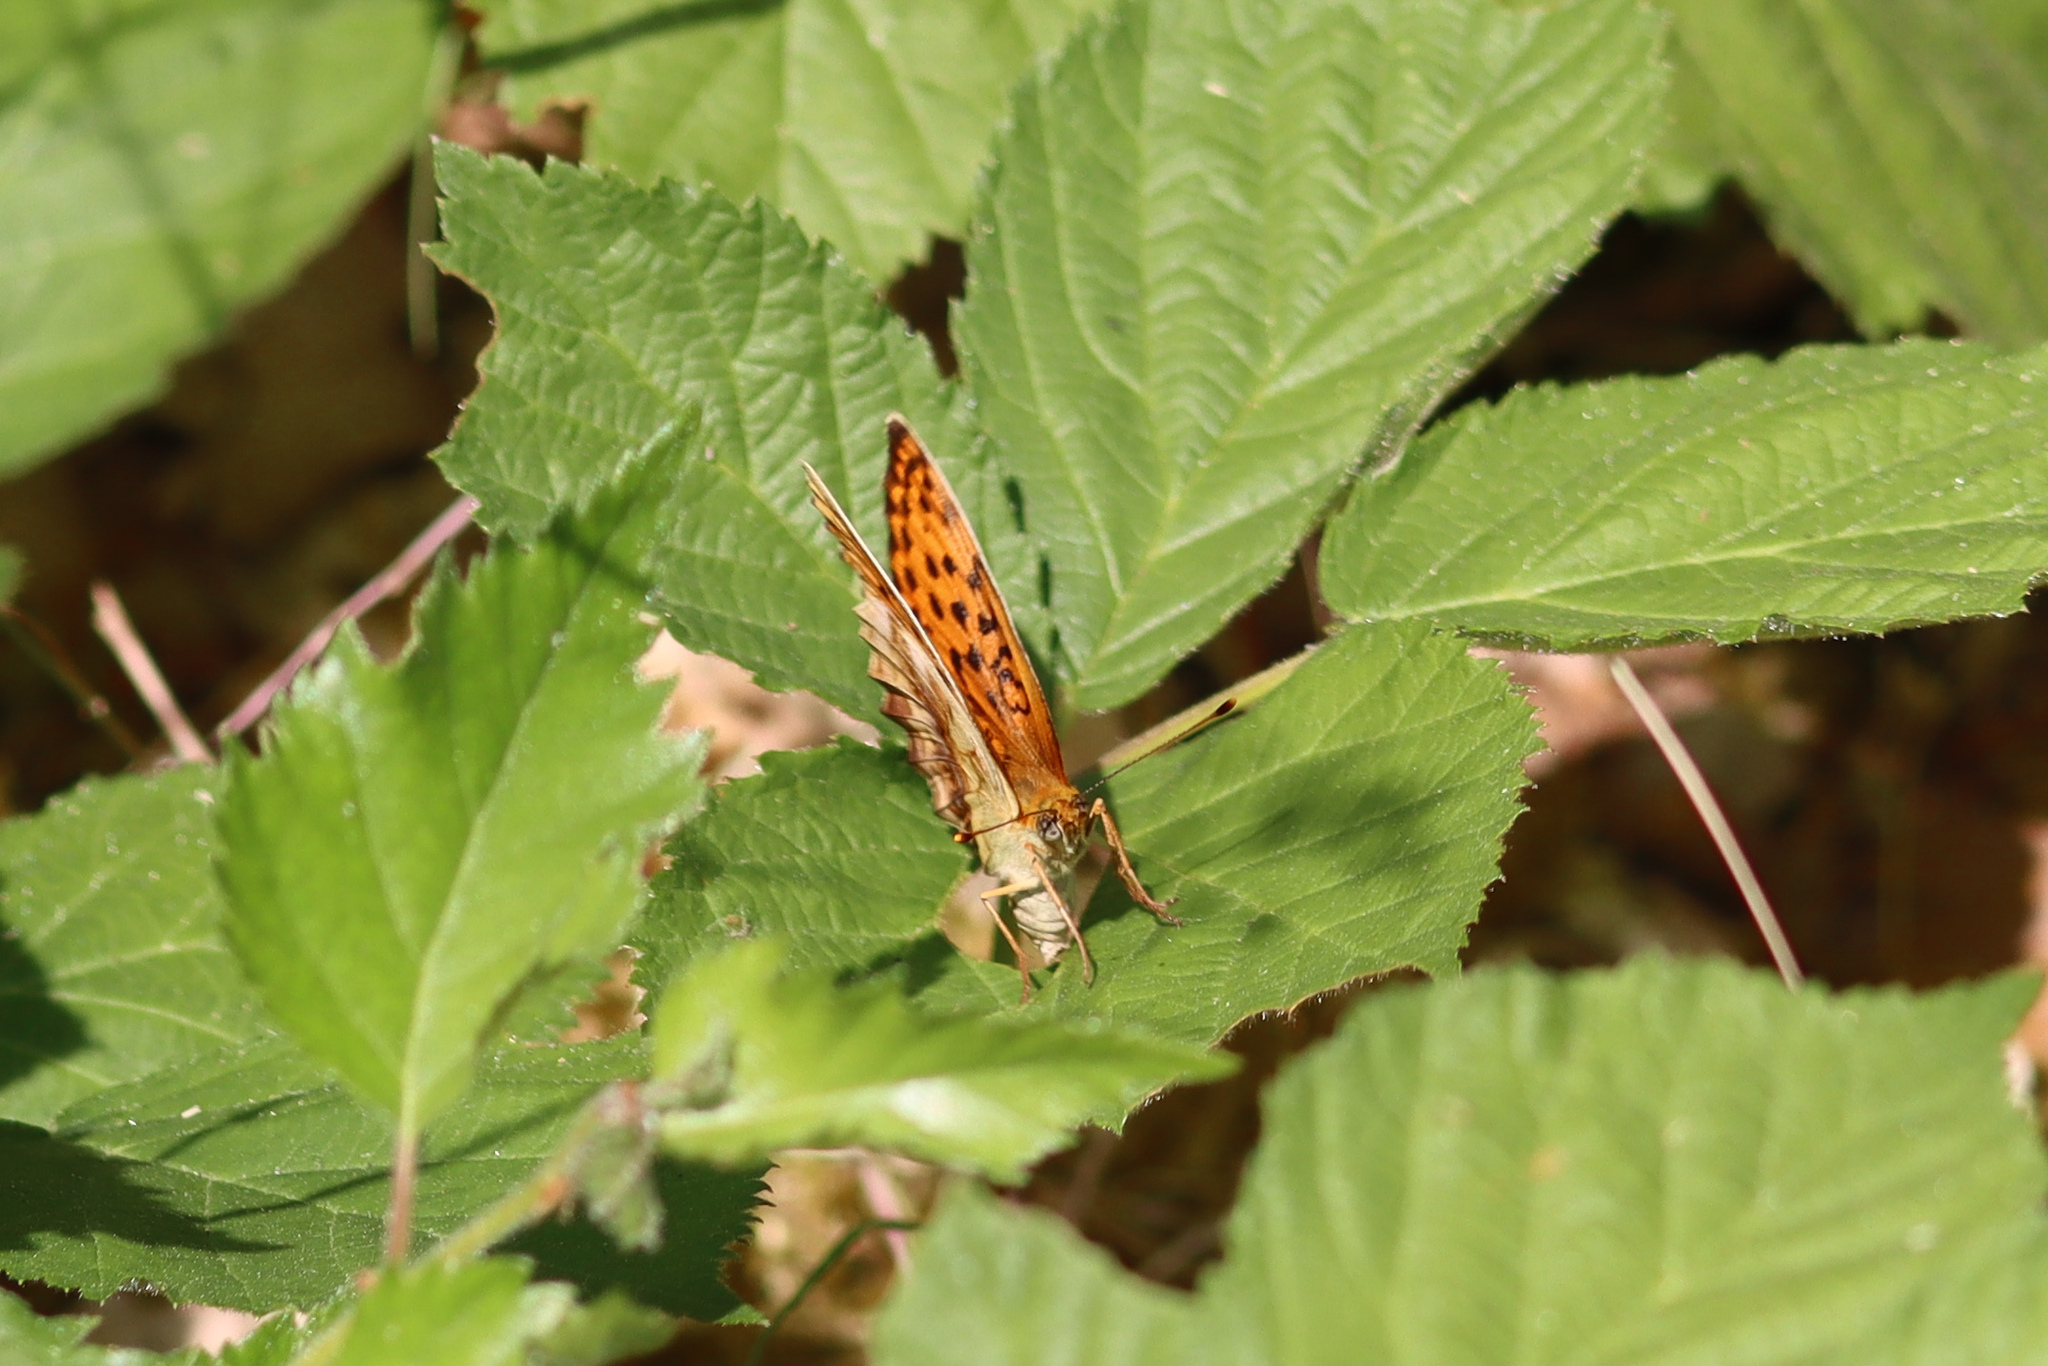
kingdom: Animalia
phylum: Arthropoda
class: Insecta
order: Lepidoptera
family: Nymphalidae
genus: Brenthis
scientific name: Brenthis daphne
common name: Marbled fritillary
